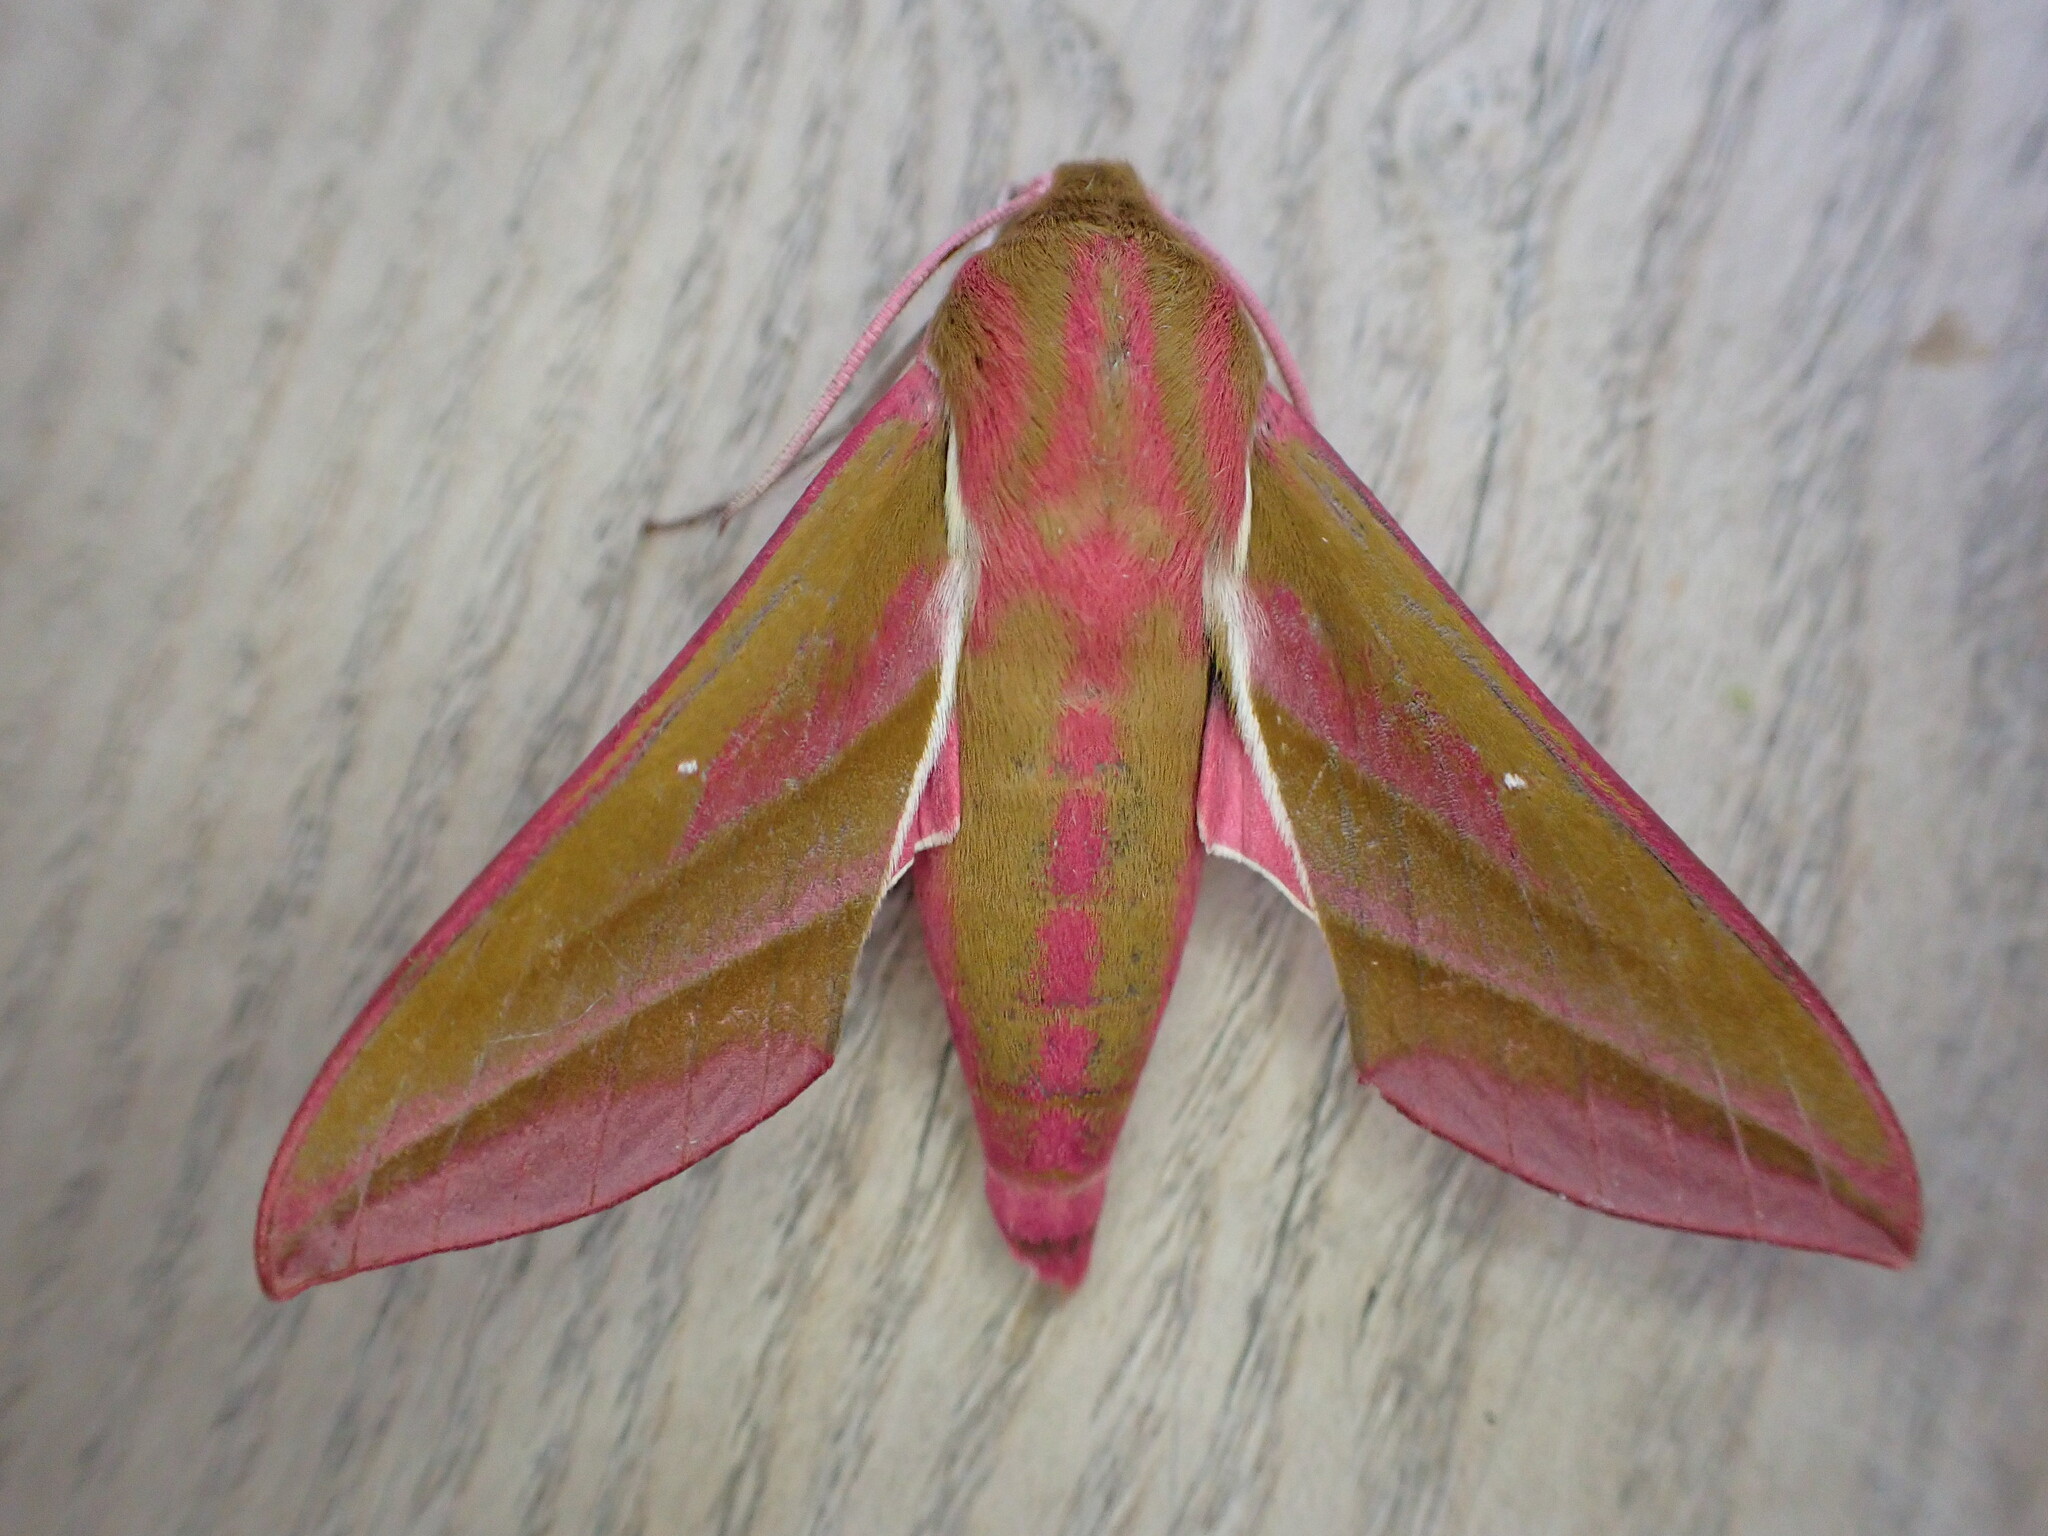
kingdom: Animalia
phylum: Arthropoda
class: Insecta
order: Lepidoptera
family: Sphingidae
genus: Deilephila
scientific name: Deilephila elpenor
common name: Elephant hawk-moth
